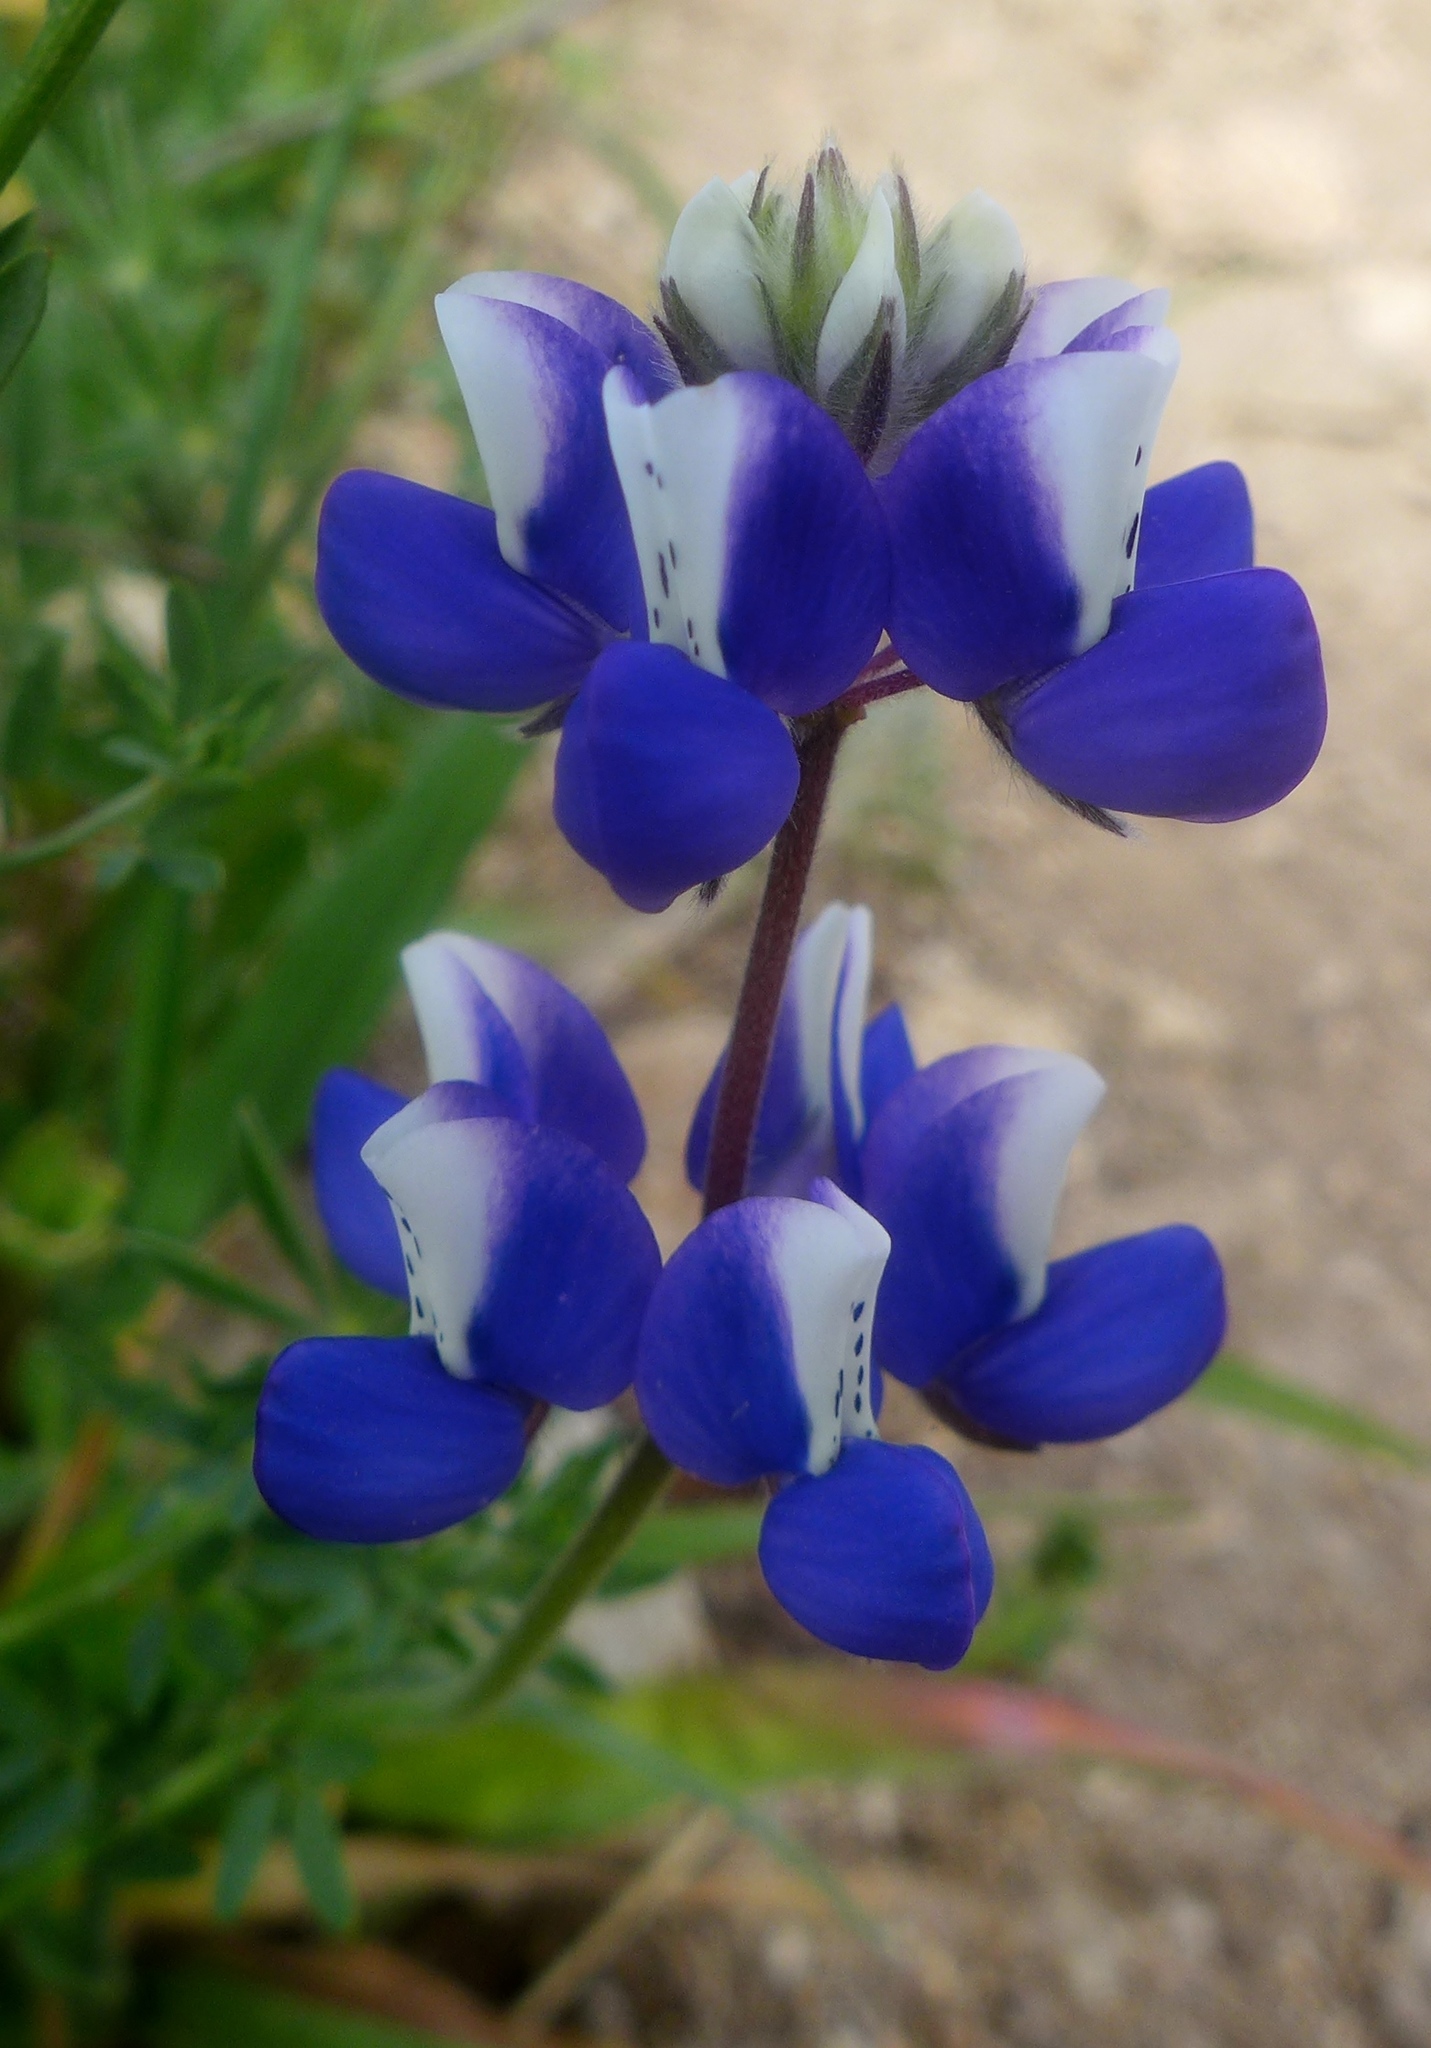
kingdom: Plantae
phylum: Tracheophyta
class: Magnoliopsida
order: Fabales
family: Fabaceae
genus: Lupinus
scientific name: Lupinus nanus
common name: Orean blue lupin
